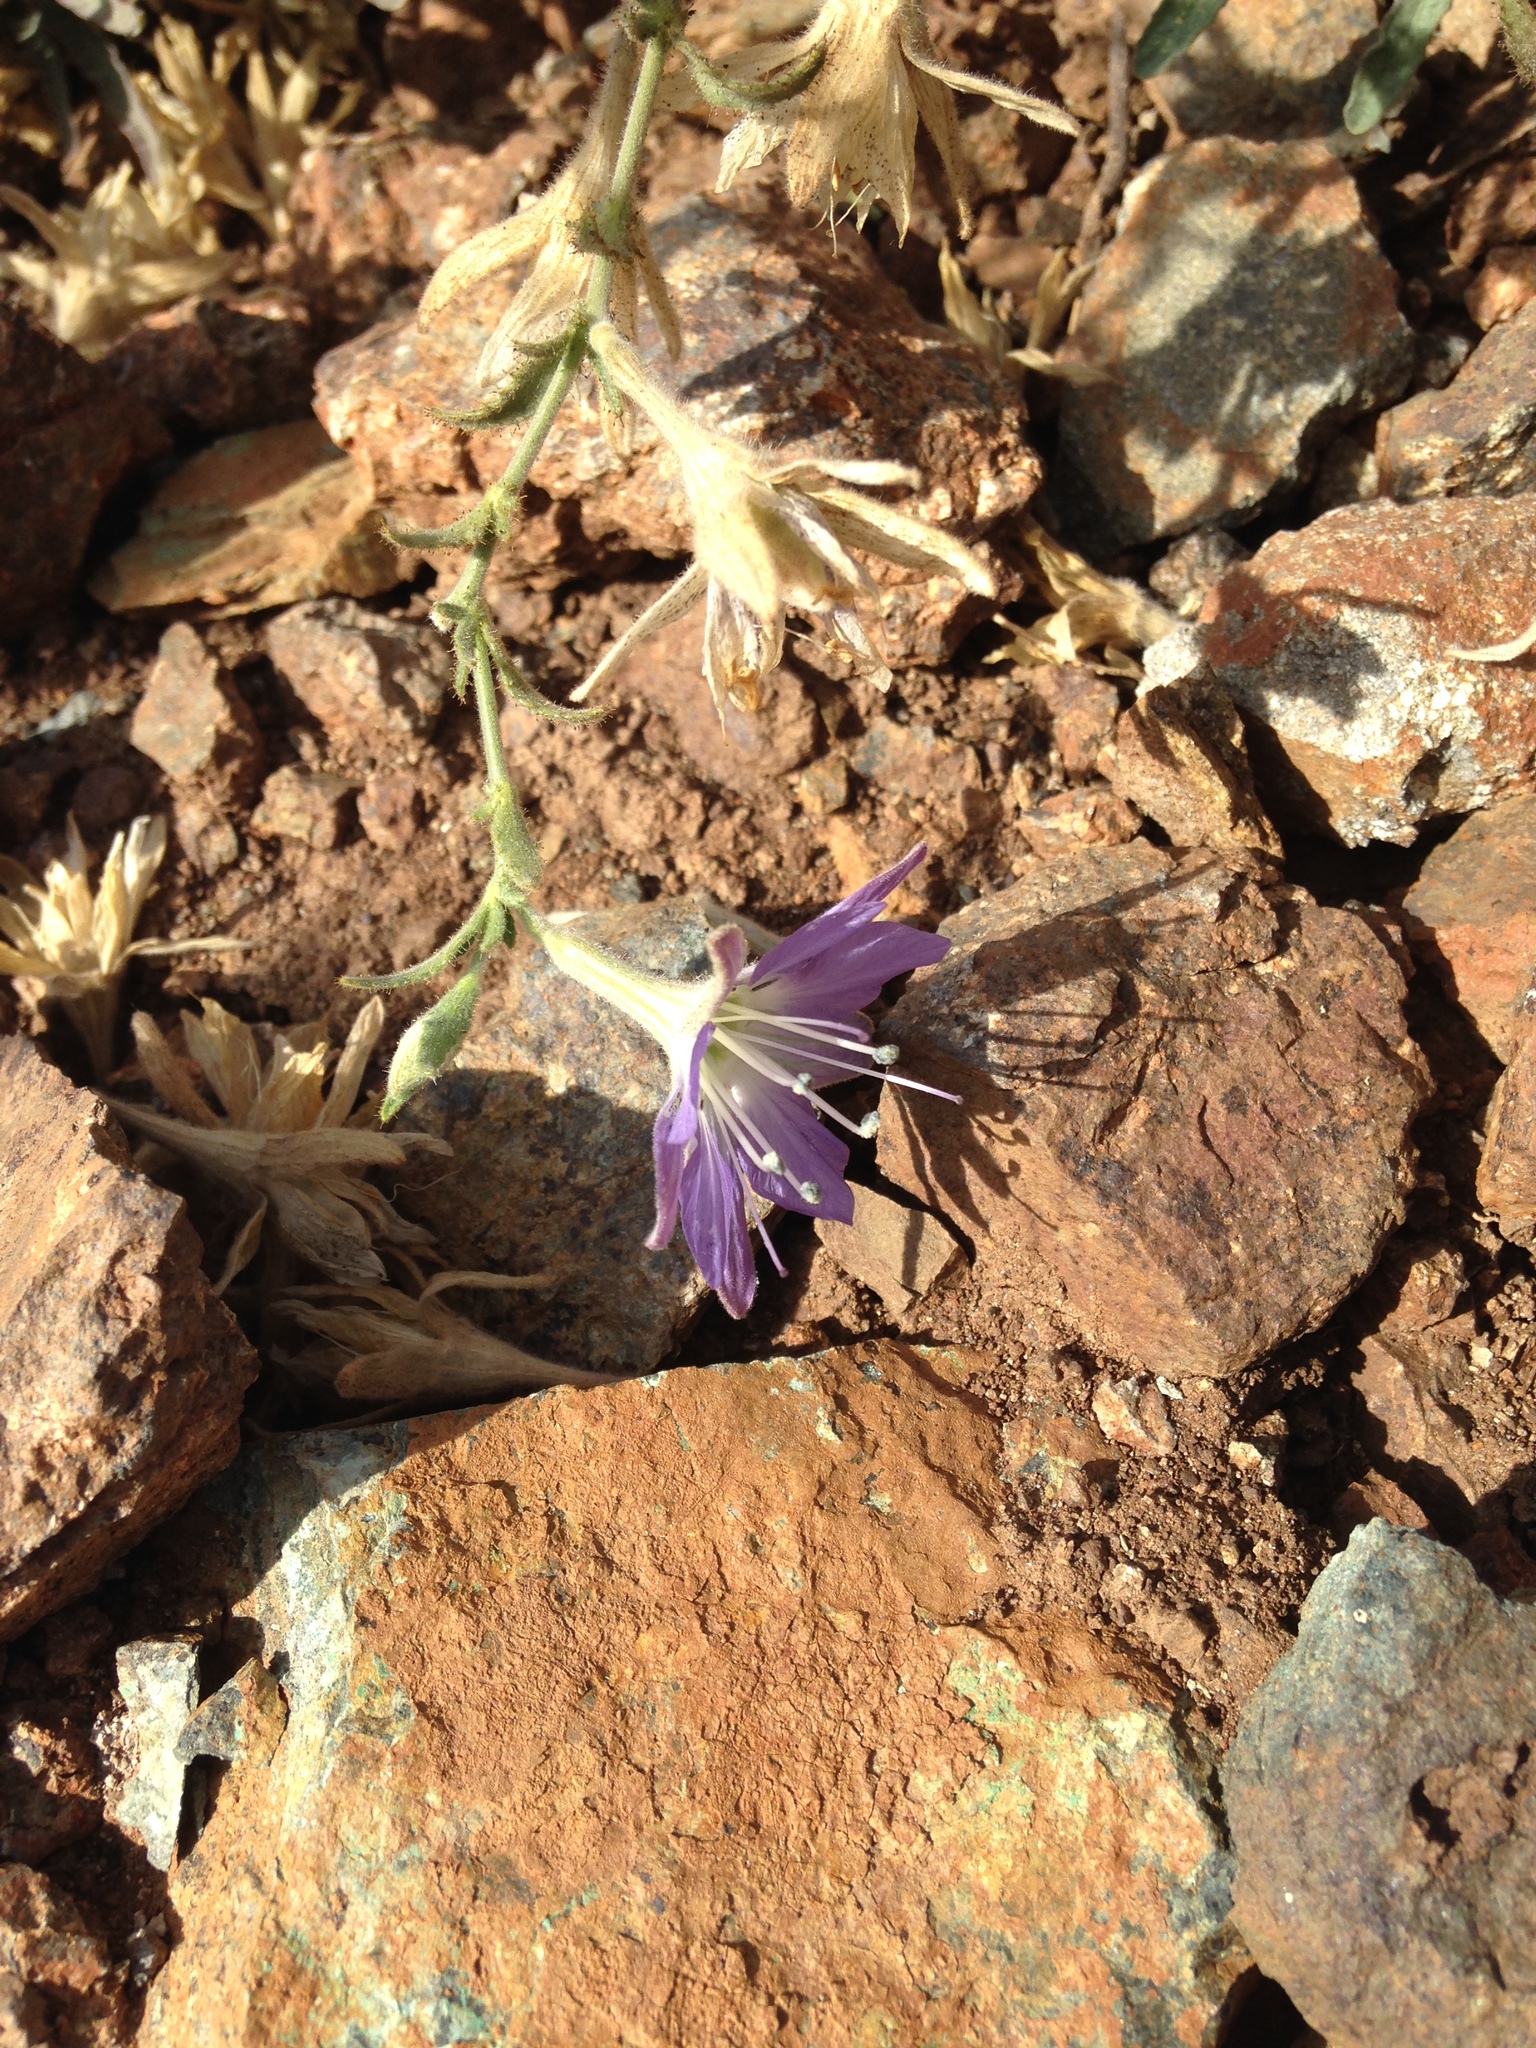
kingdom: Plantae
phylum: Tracheophyta
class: Magnoliopsida
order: Malpighiales
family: Malesherbiaceae
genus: Malesherbia
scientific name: Malesherbia linearifolia
